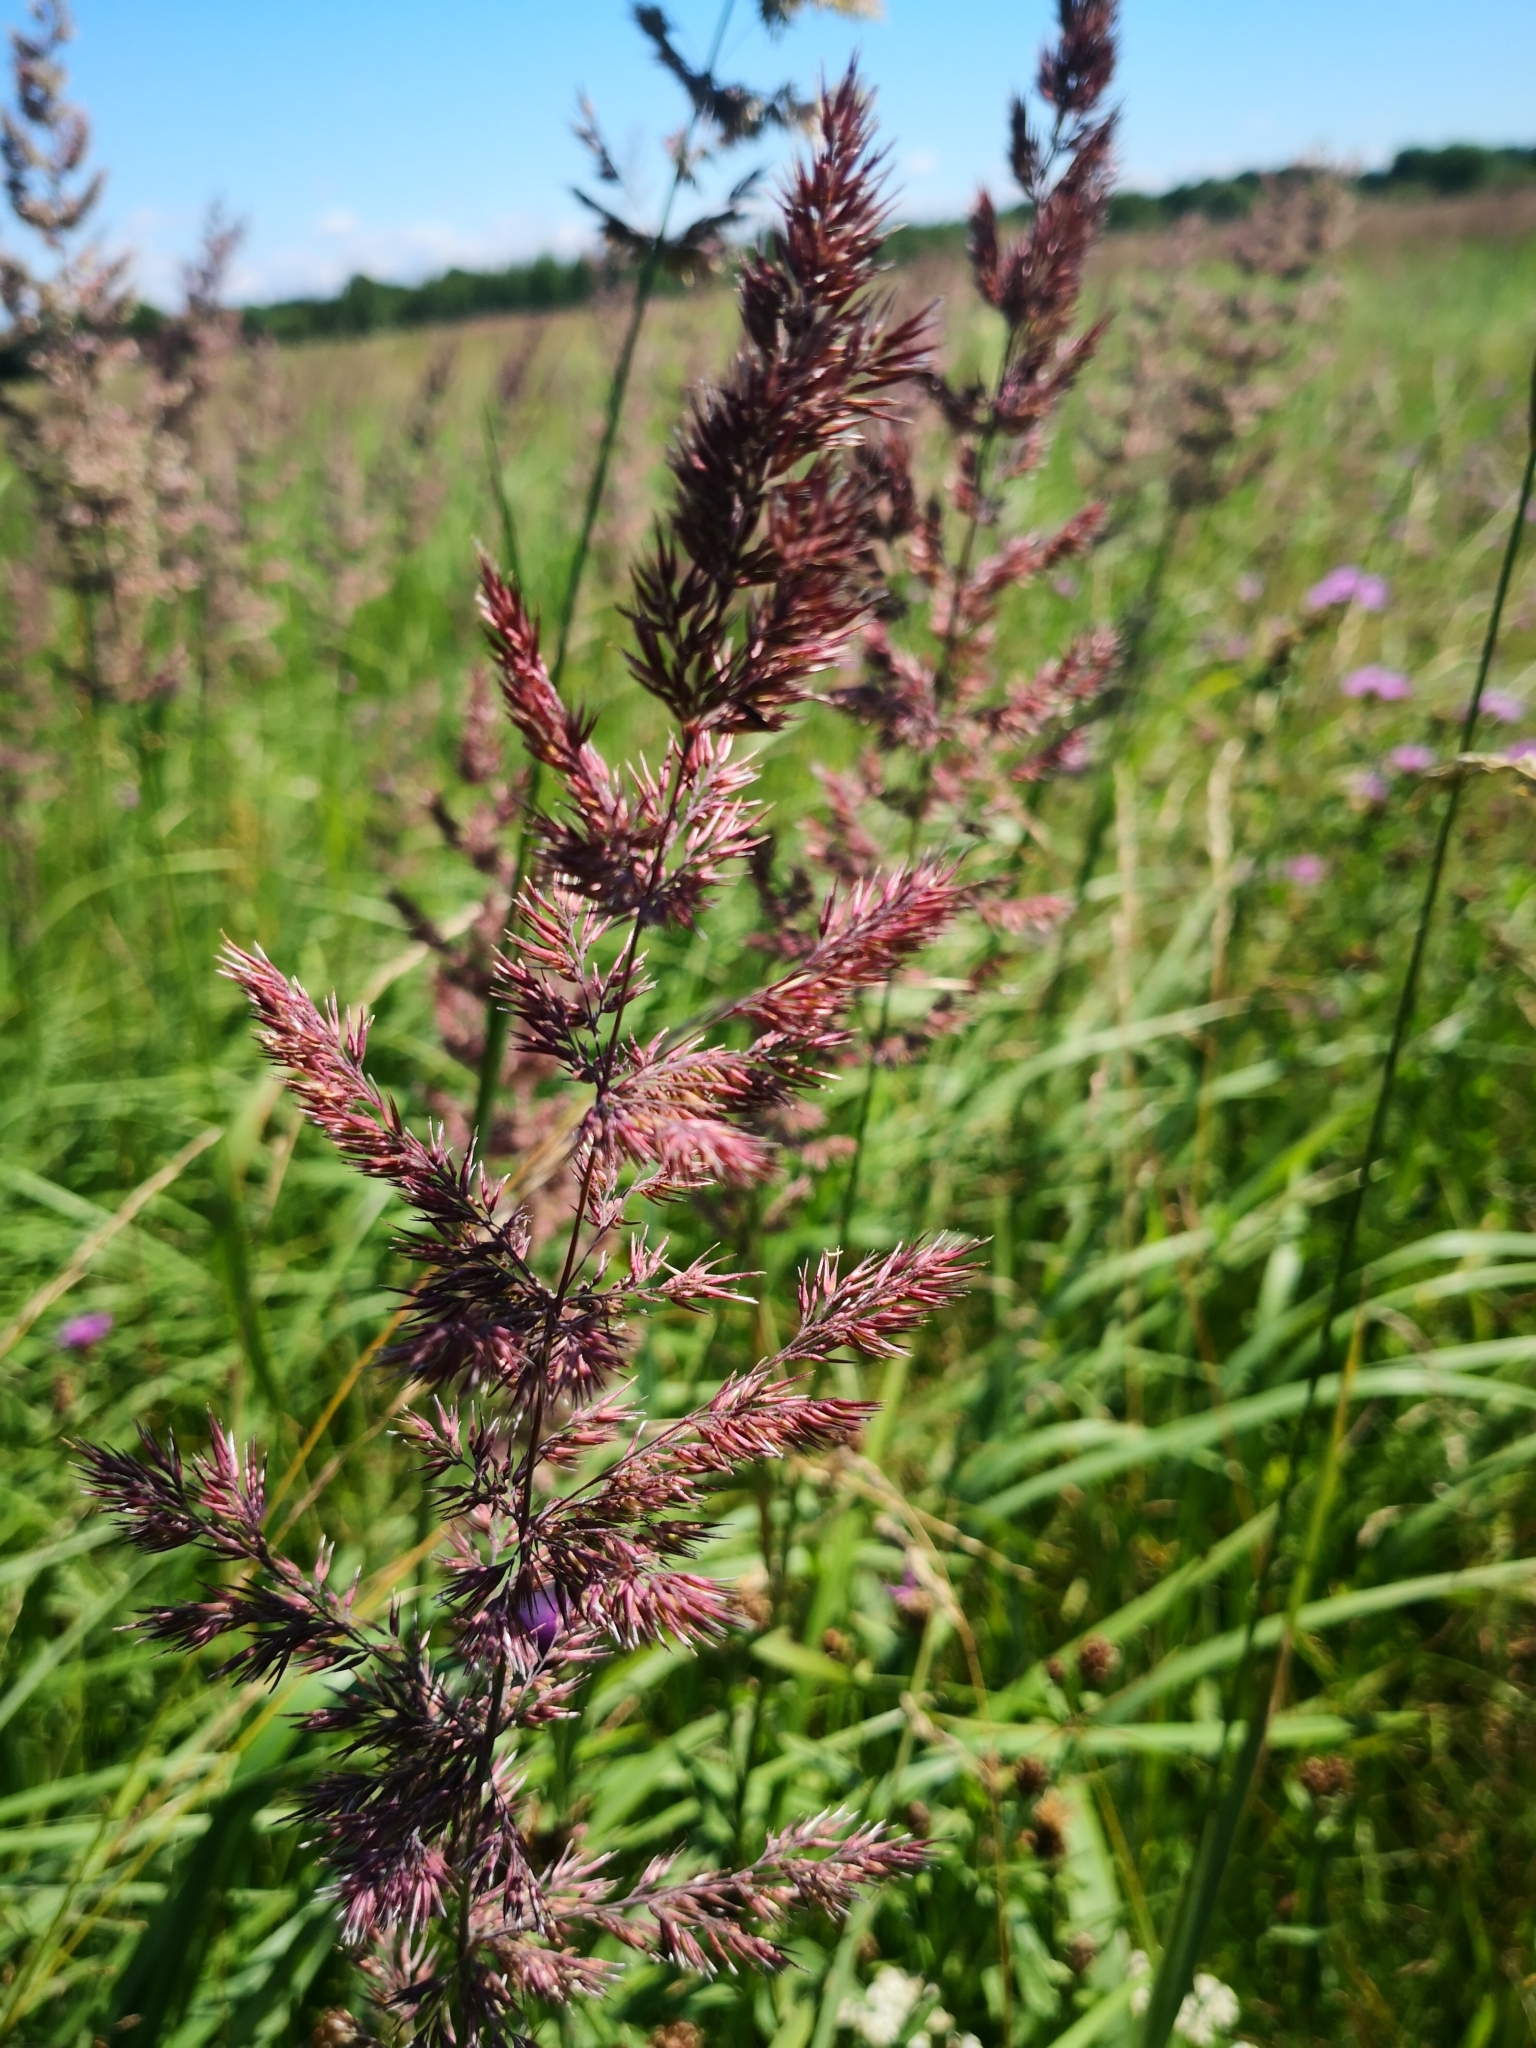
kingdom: Plantae
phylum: Tracheophyta
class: Liliopsida
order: Poales
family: Poaceae
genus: Calamagrostis
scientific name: Calamagrostis epigejos
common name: Wood small-reed
